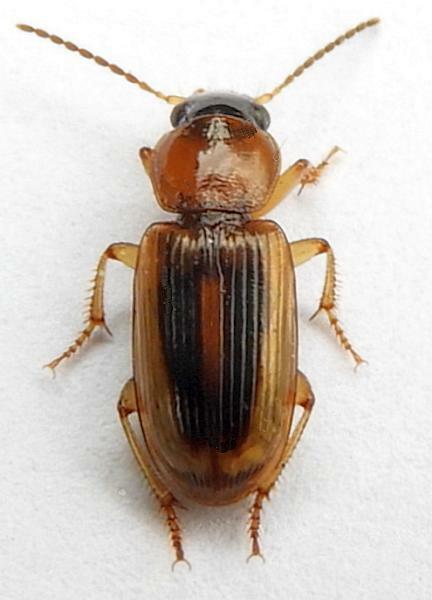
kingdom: Animalia
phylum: Arthropoda
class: Insecta
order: Coleoptera
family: Carabidae
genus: Stenolophus
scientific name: Stenolophus comma
